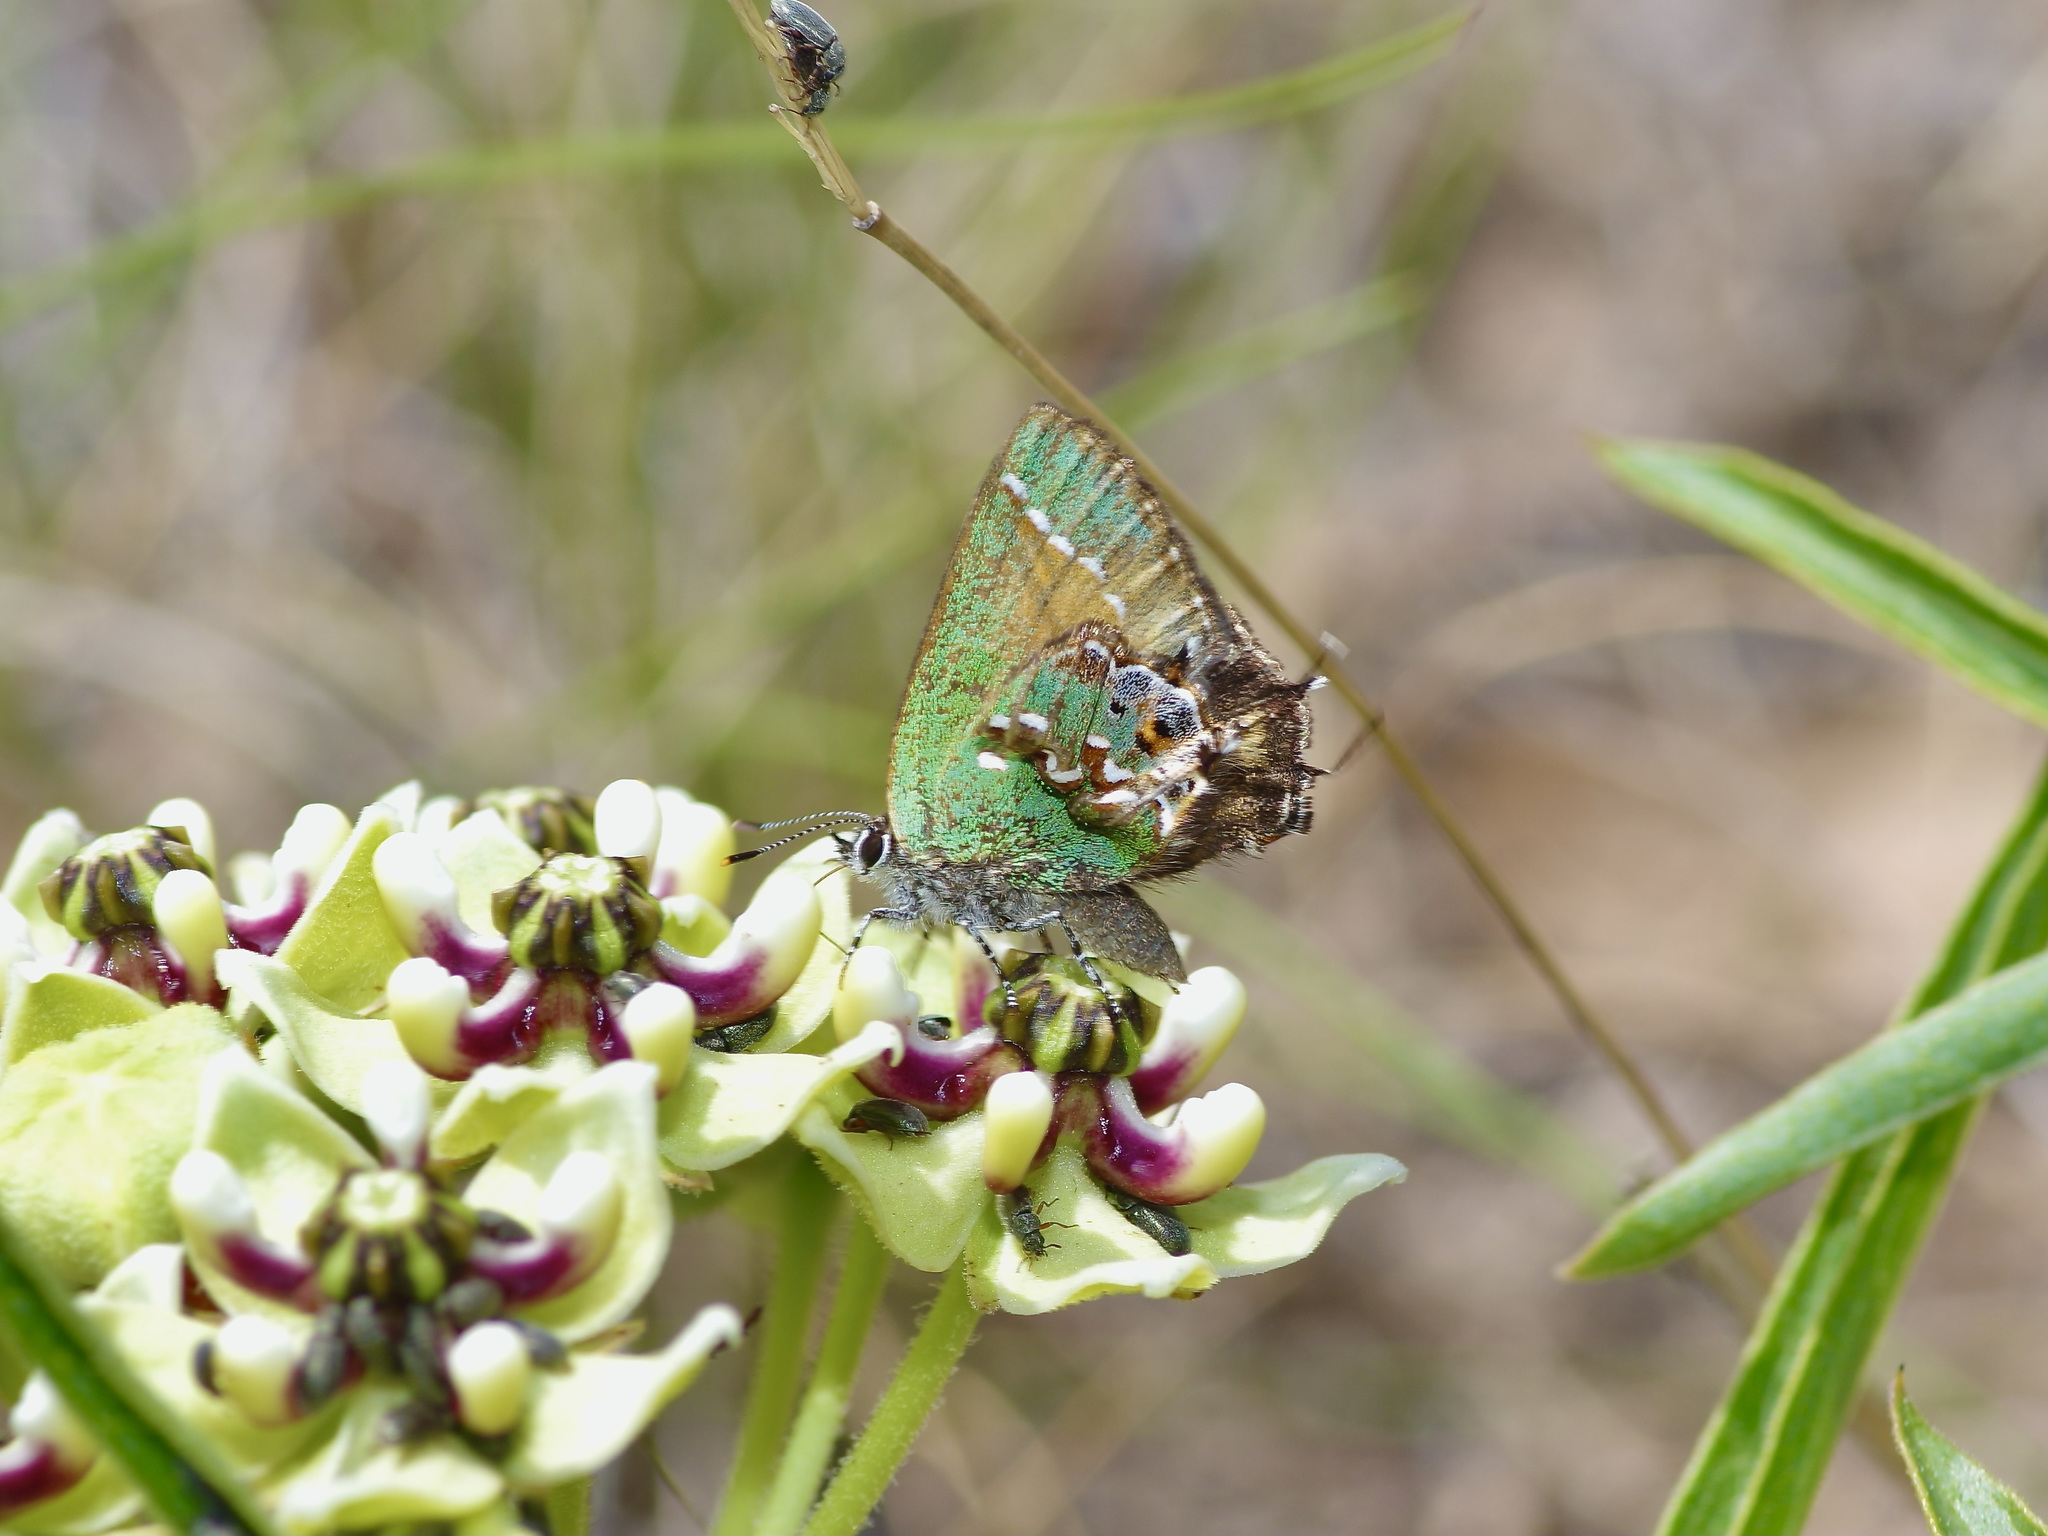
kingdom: Animalia
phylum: Arthropoda
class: Insecta
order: Lepidoptera
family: Lycaenidae
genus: Mitoura
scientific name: Mitoura gryneus
